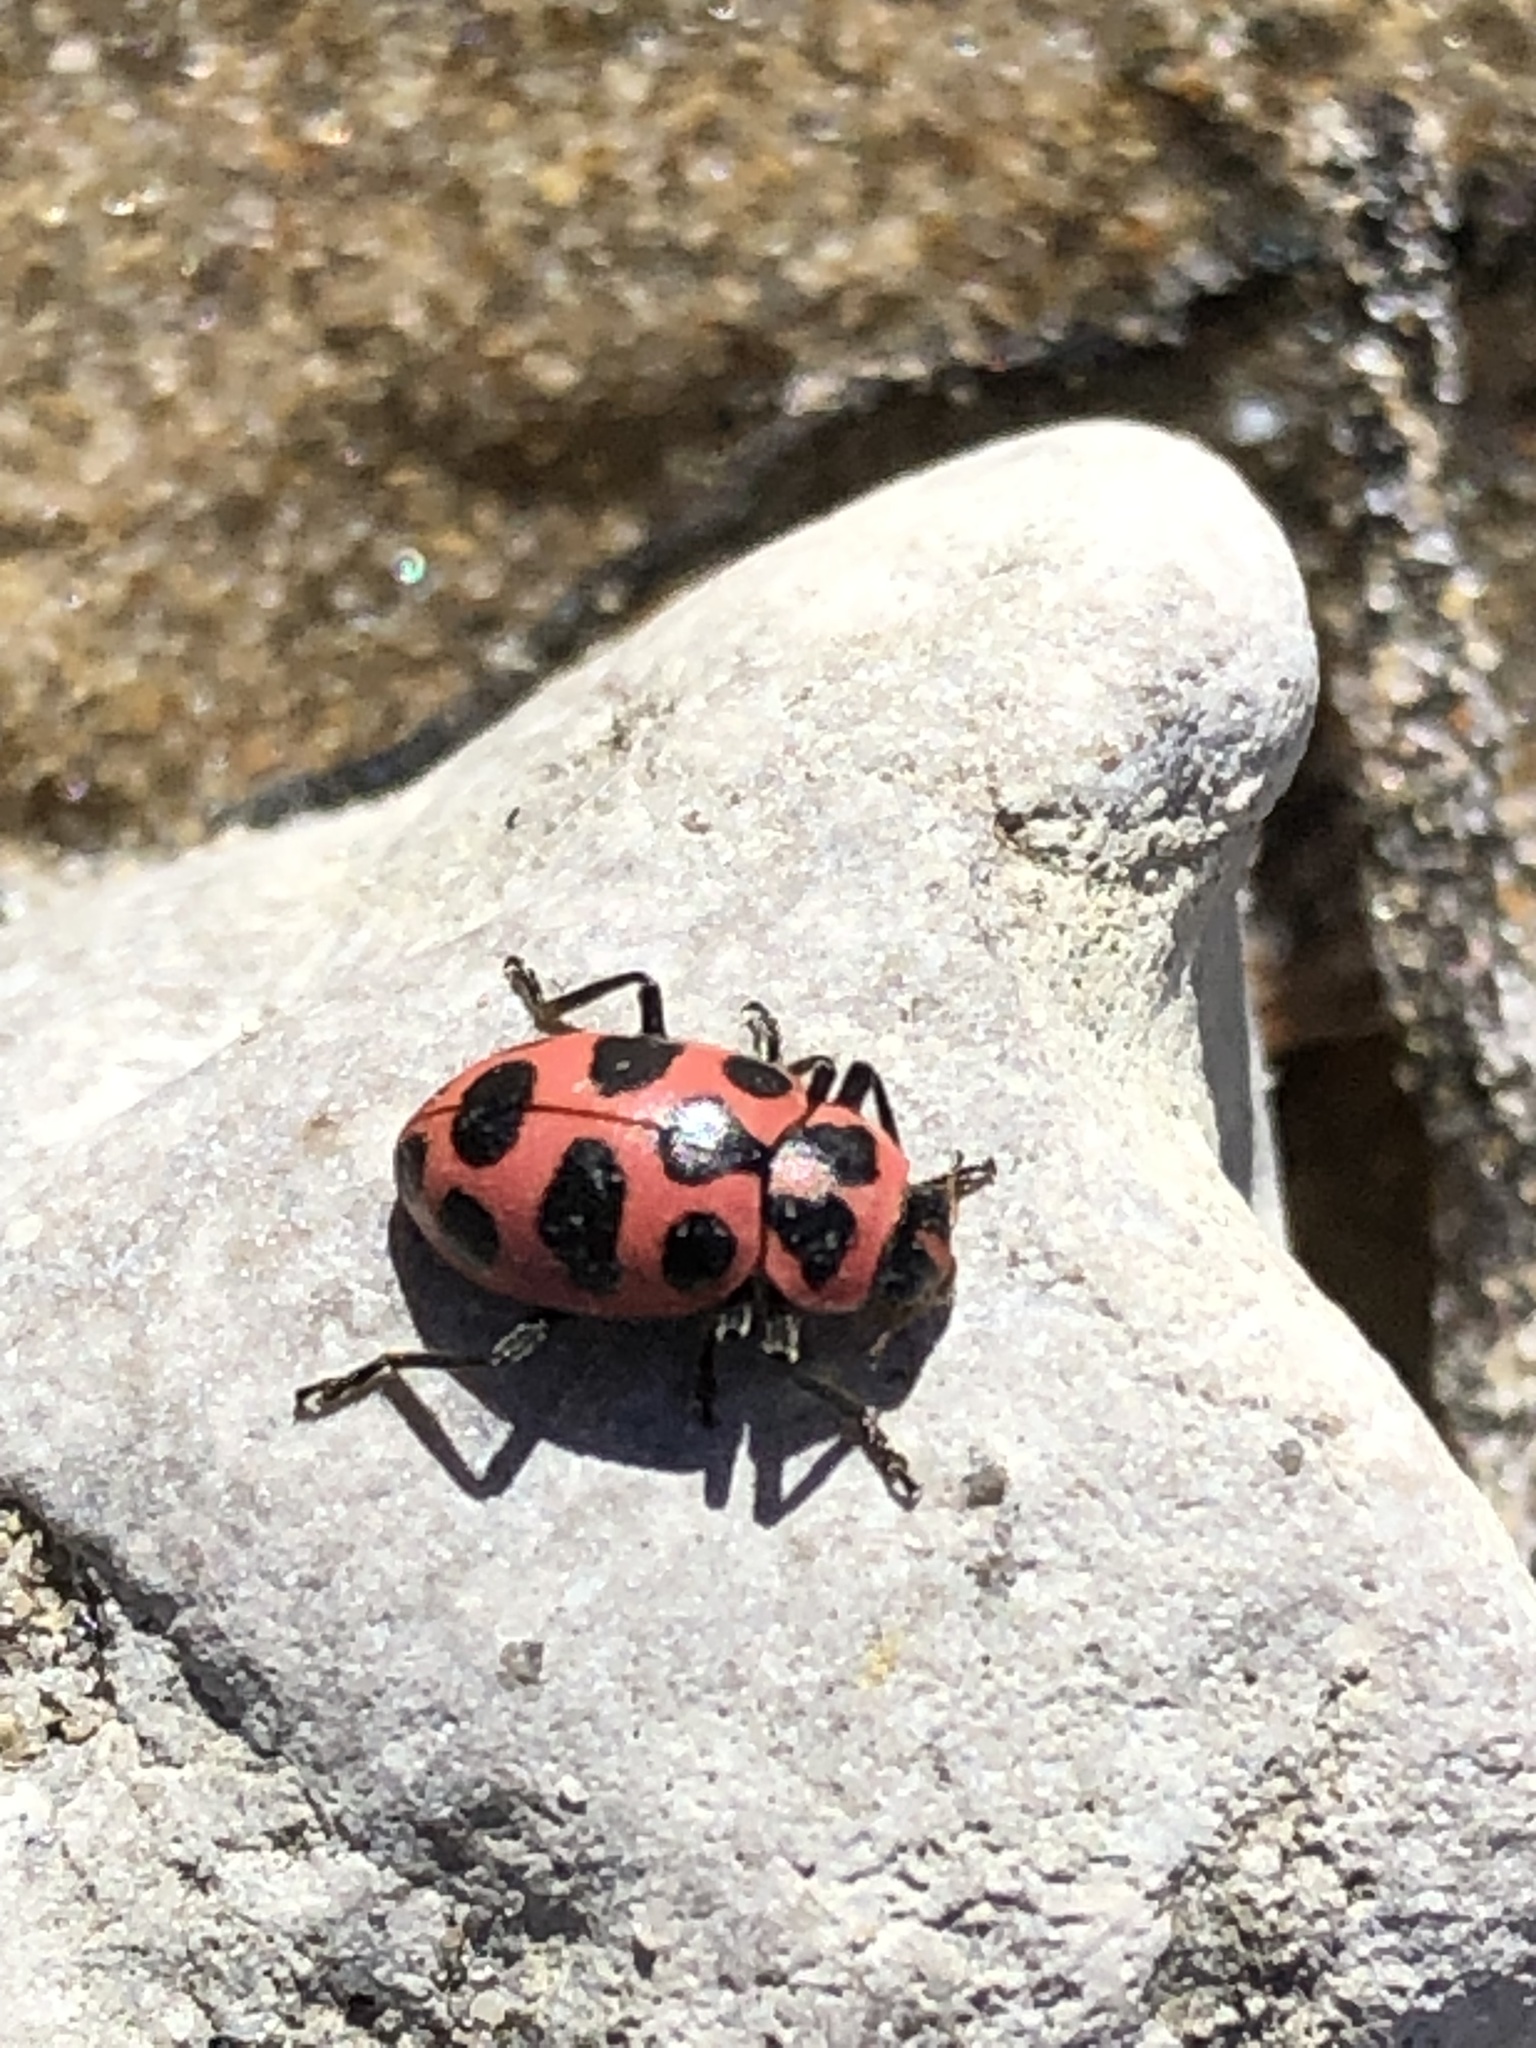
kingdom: Animalia
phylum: Arthropoda
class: Insecta
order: Coleoptera
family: Coccinellidae
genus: Coleomegilla
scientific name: Coleomegilla maculata
